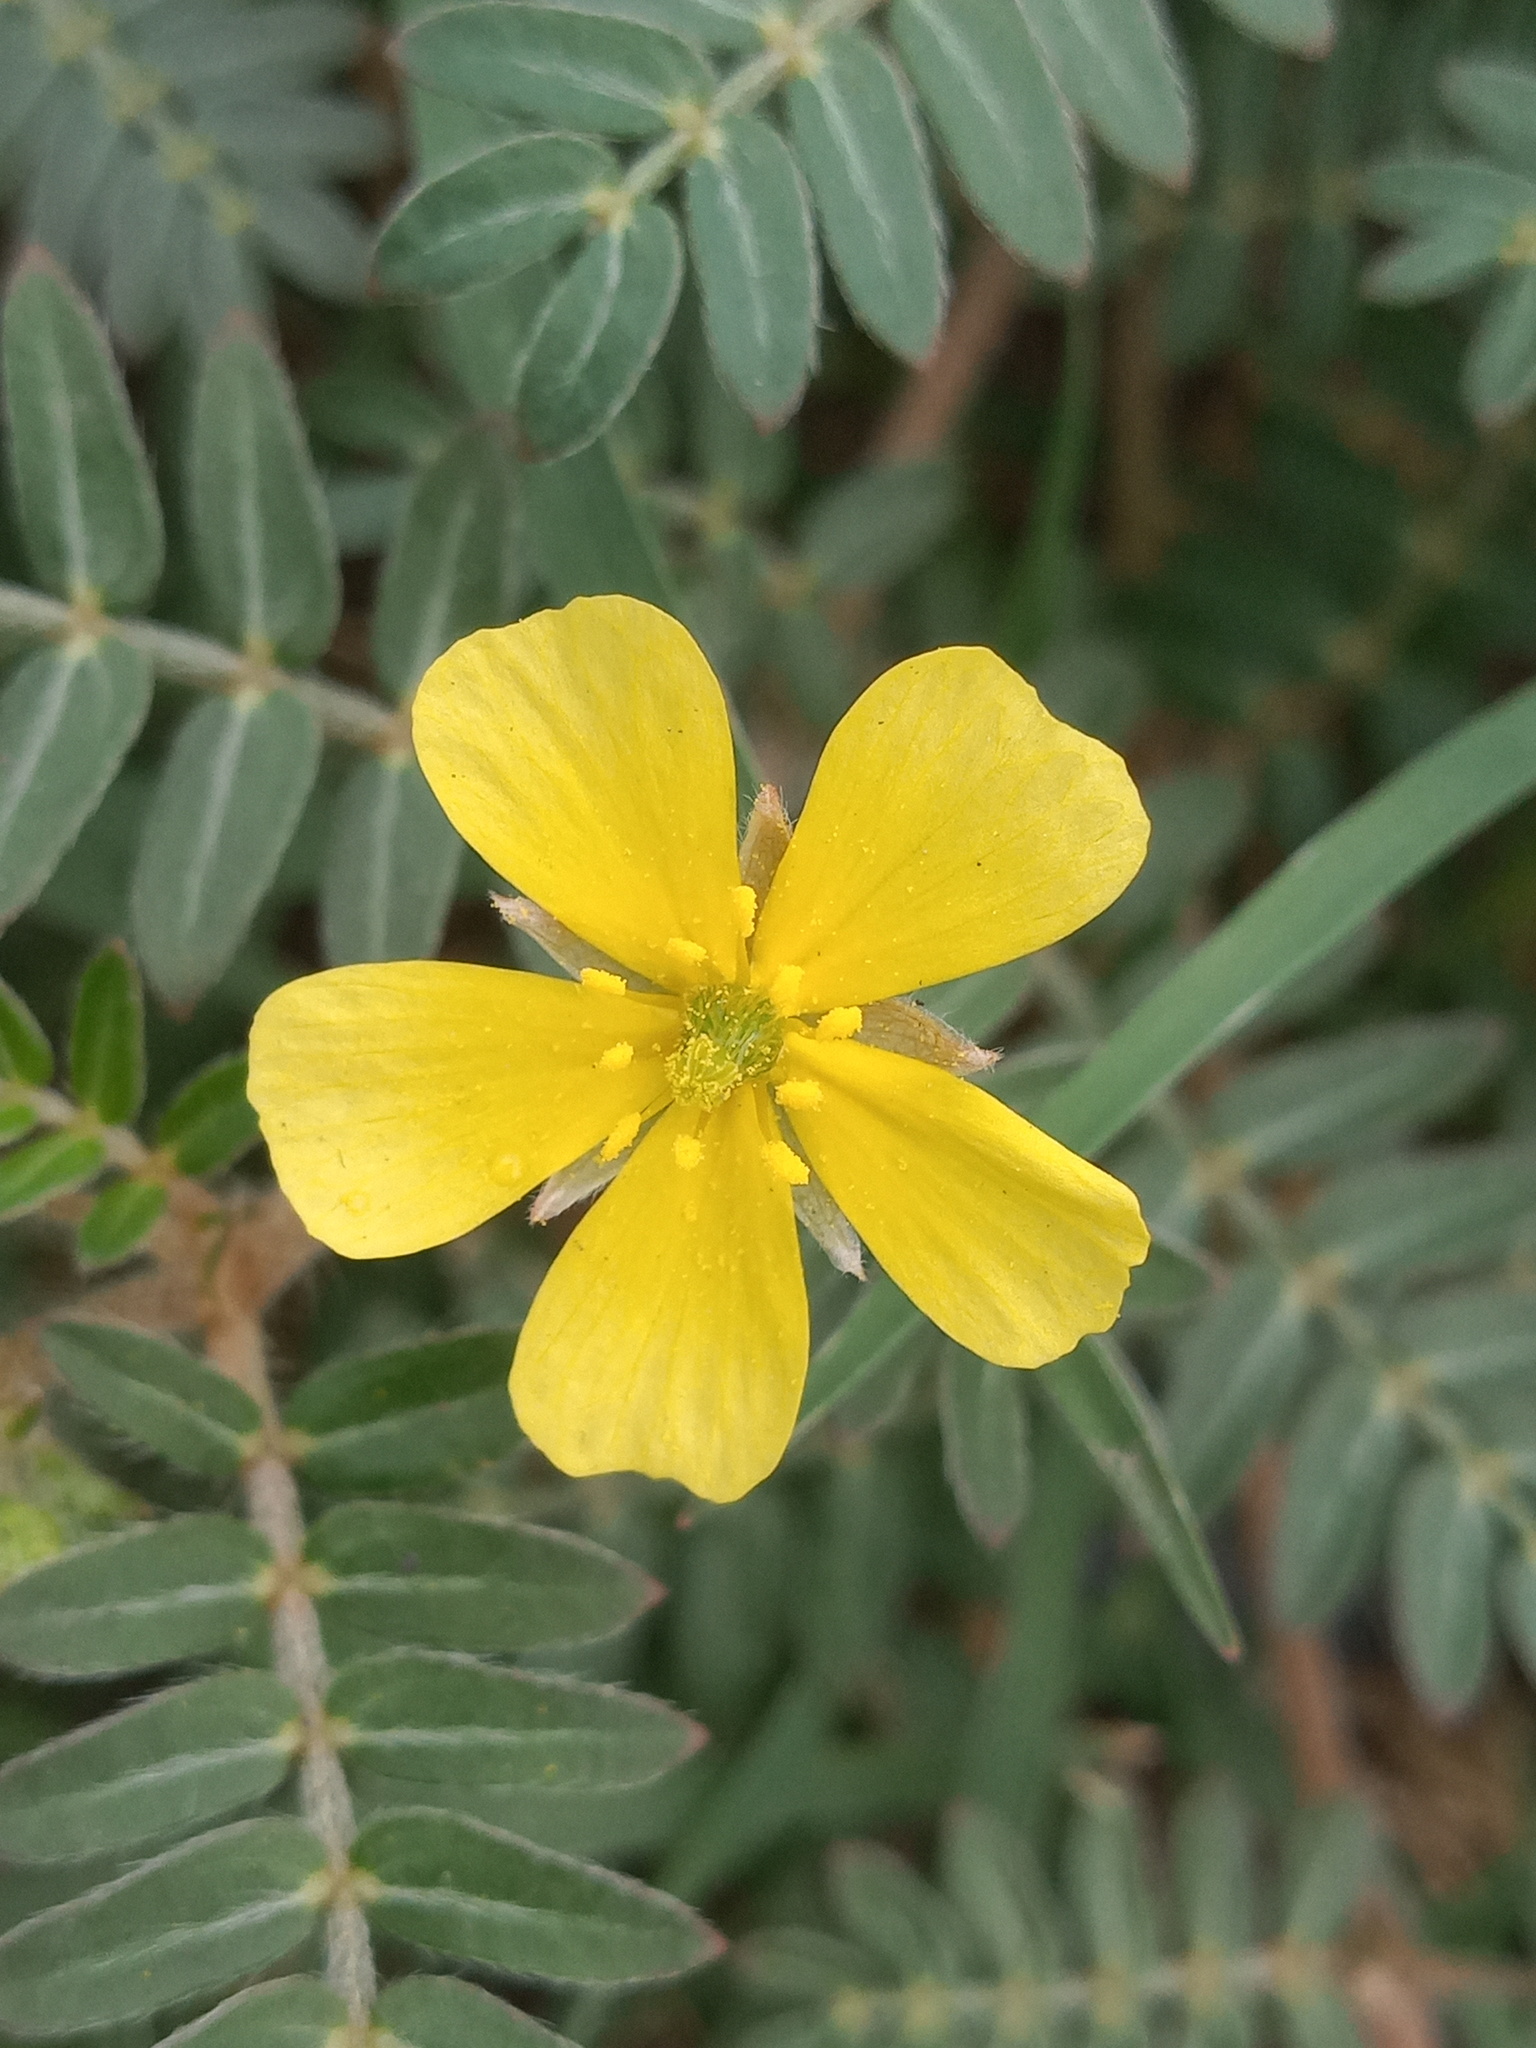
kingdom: Plantae
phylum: Tracheophyta
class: Magnoliopsida
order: Zygophyllales
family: Zygophyllaceae
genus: Tribulus
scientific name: Tribulus terrestris
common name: Puncturevine
